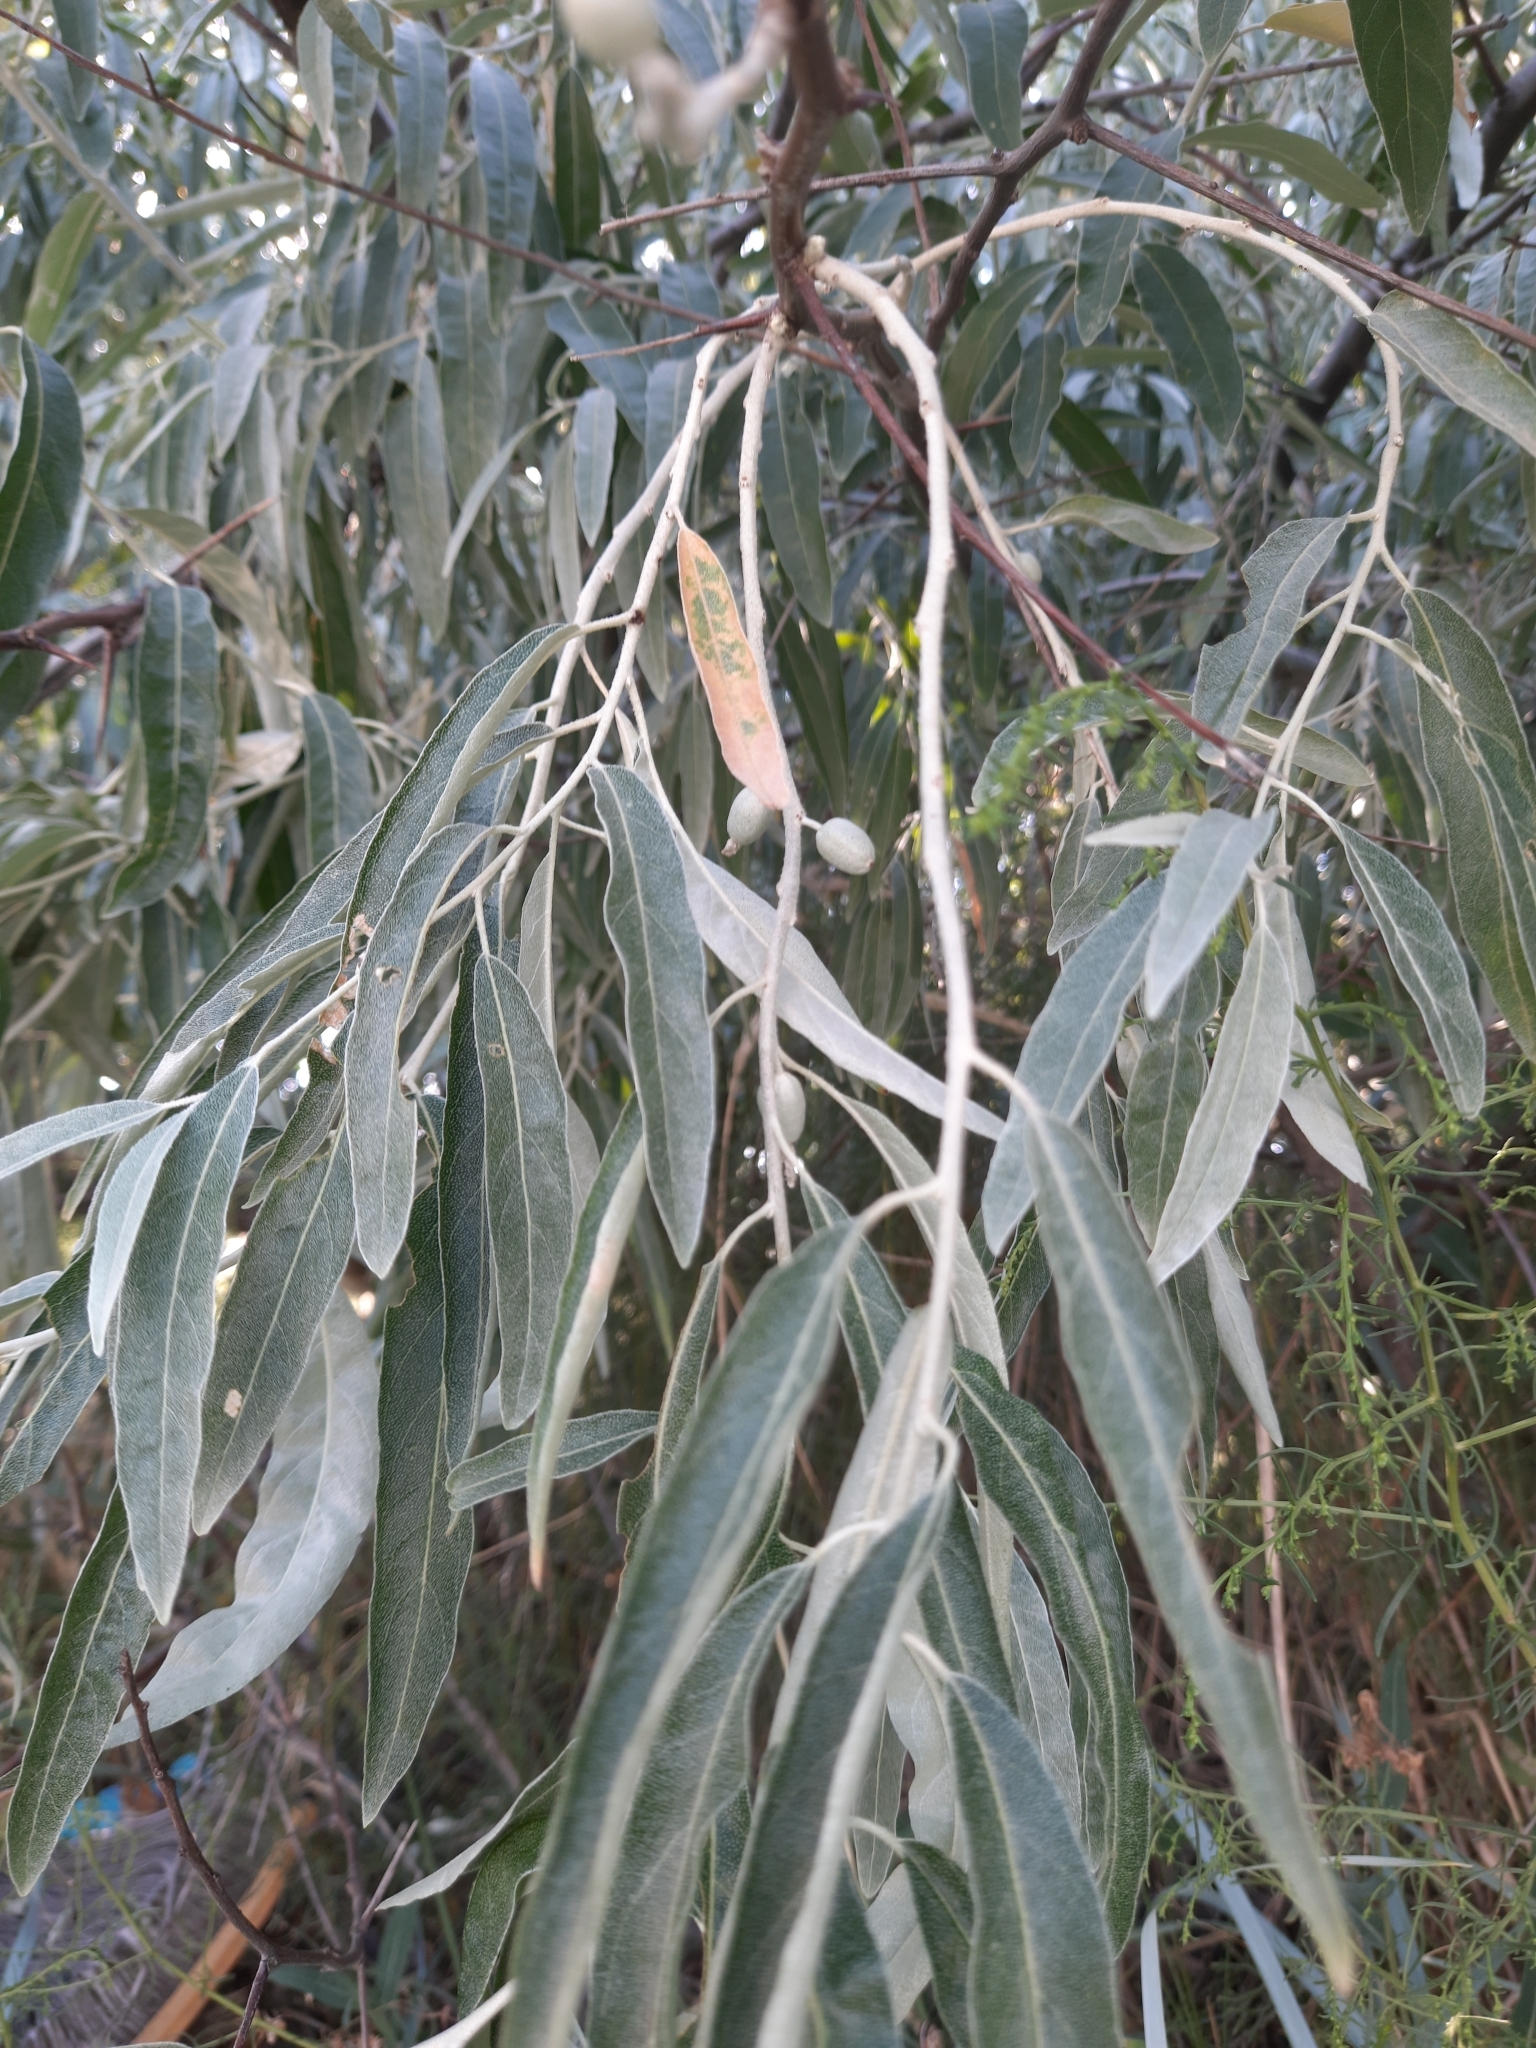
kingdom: Plantae
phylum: Tracheophyta
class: Magnoliopsida
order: Rosales
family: Elaeagnaceae
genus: Elaeagnus
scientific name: Elaeagnus angustifolia
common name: Russian olive
